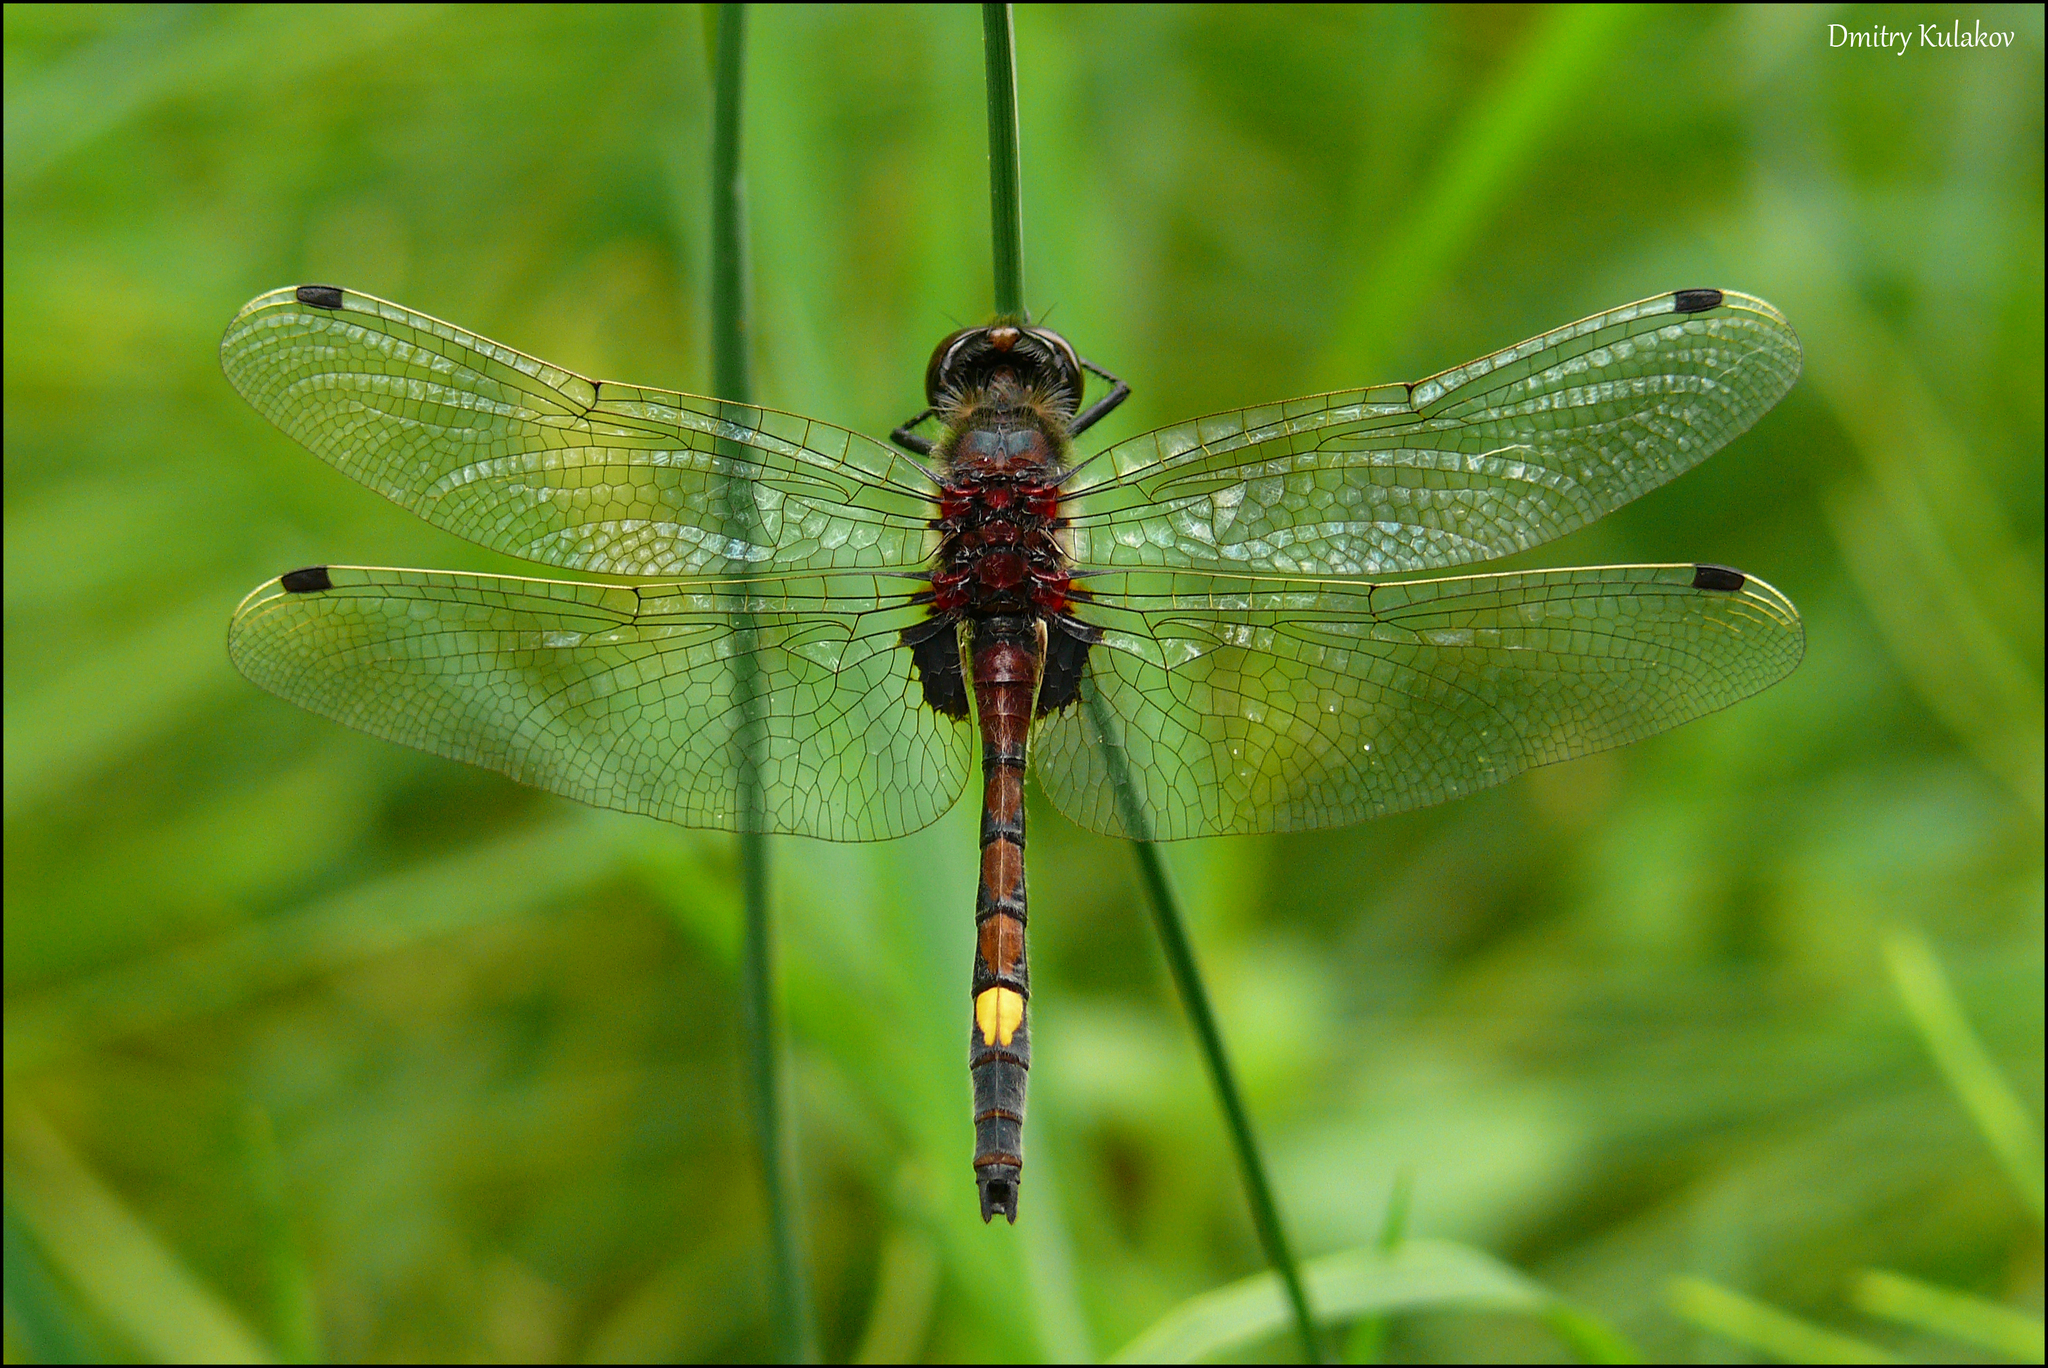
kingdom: Animalia
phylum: Arthropoda
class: Insecta
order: Odonata
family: Libellulidae
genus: Leucorrhinia
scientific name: Leucorrhinia pectoralis
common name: Yellow-spotted whiteface
